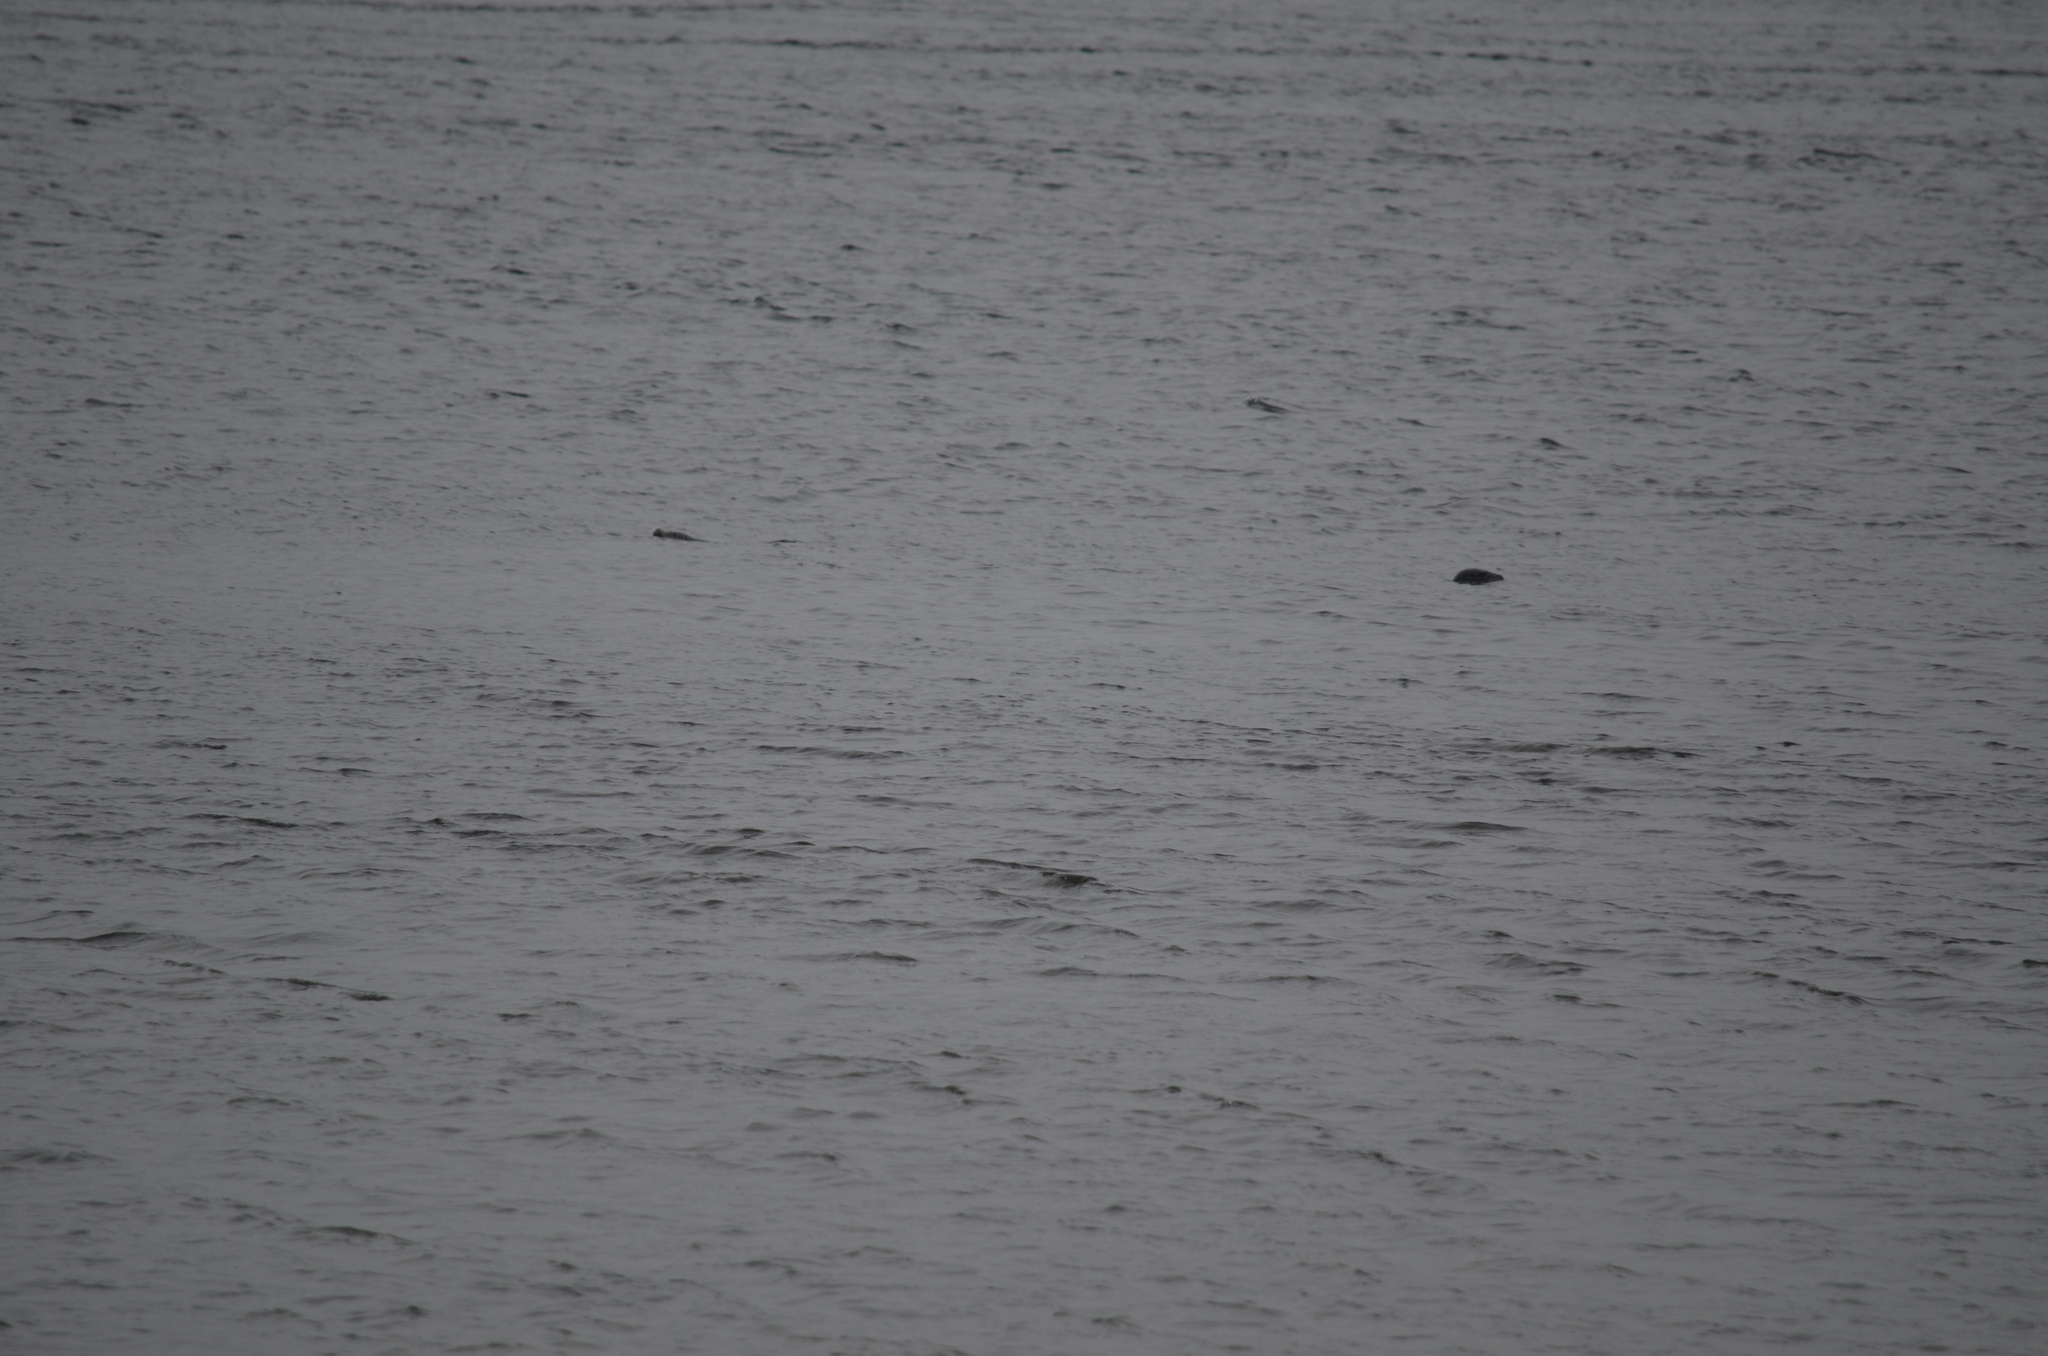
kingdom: Animalia
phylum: Chordata
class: Mammalia
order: Carnivora
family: Phocidae
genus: Phoca
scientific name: Phoca vitulina
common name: Harbor seal
